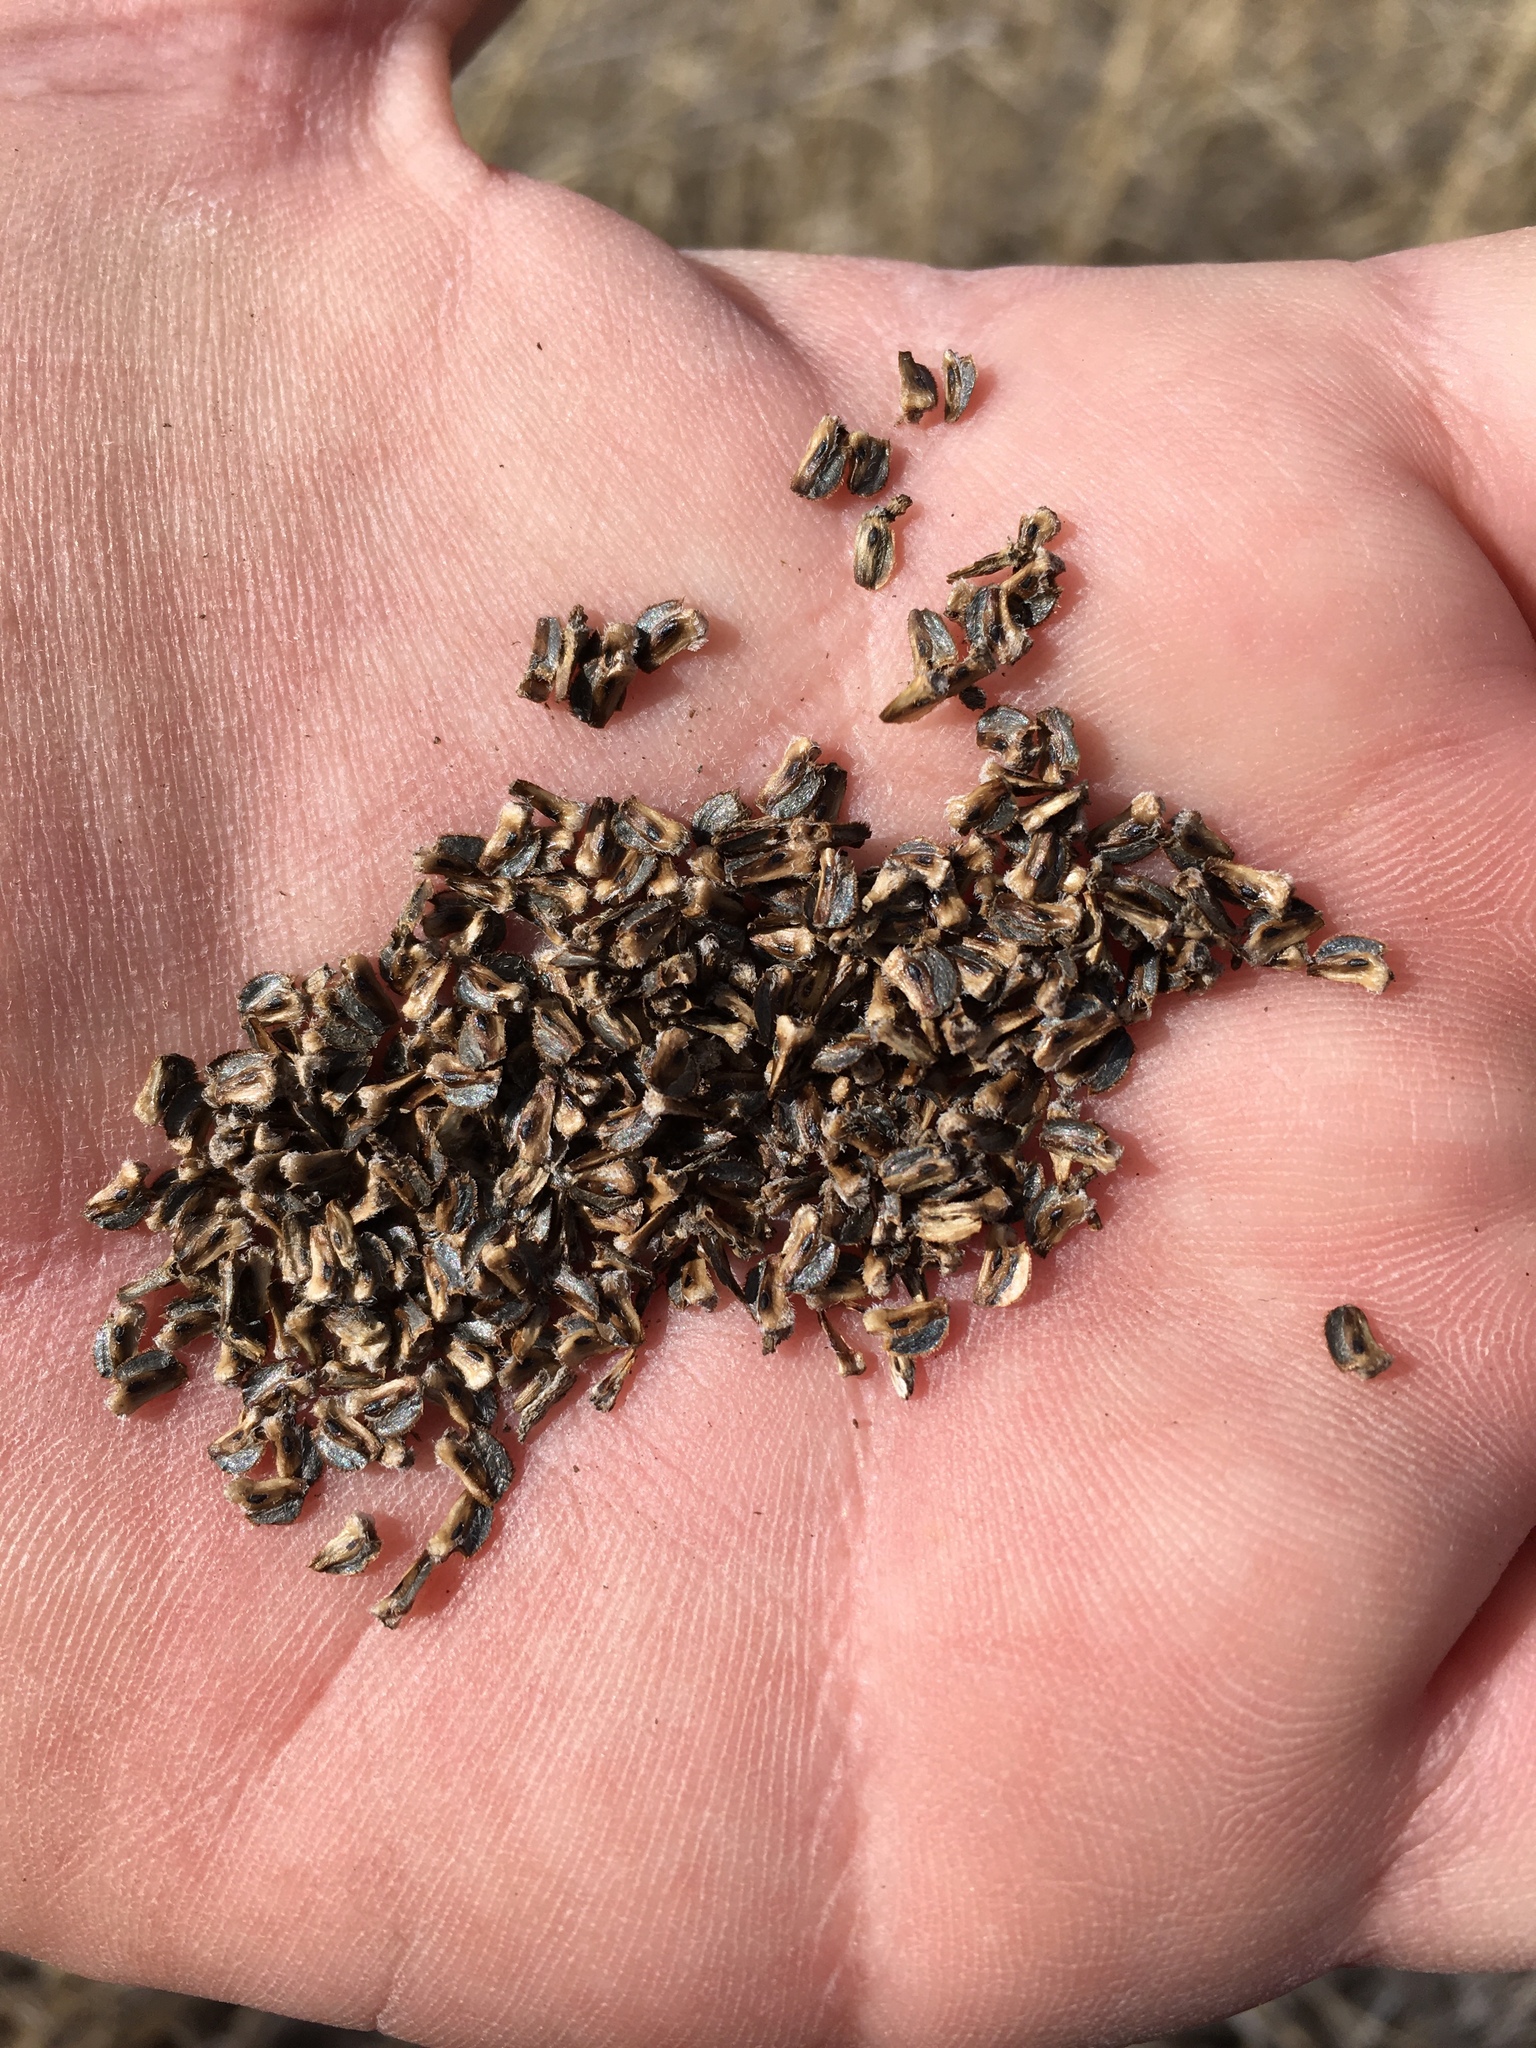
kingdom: Plantae
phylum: Tracheophyta
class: Magnoliopsida
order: Asterales
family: Asteraceae
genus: Ratibida
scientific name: Ratibida columnifera
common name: Prairie coneflower
